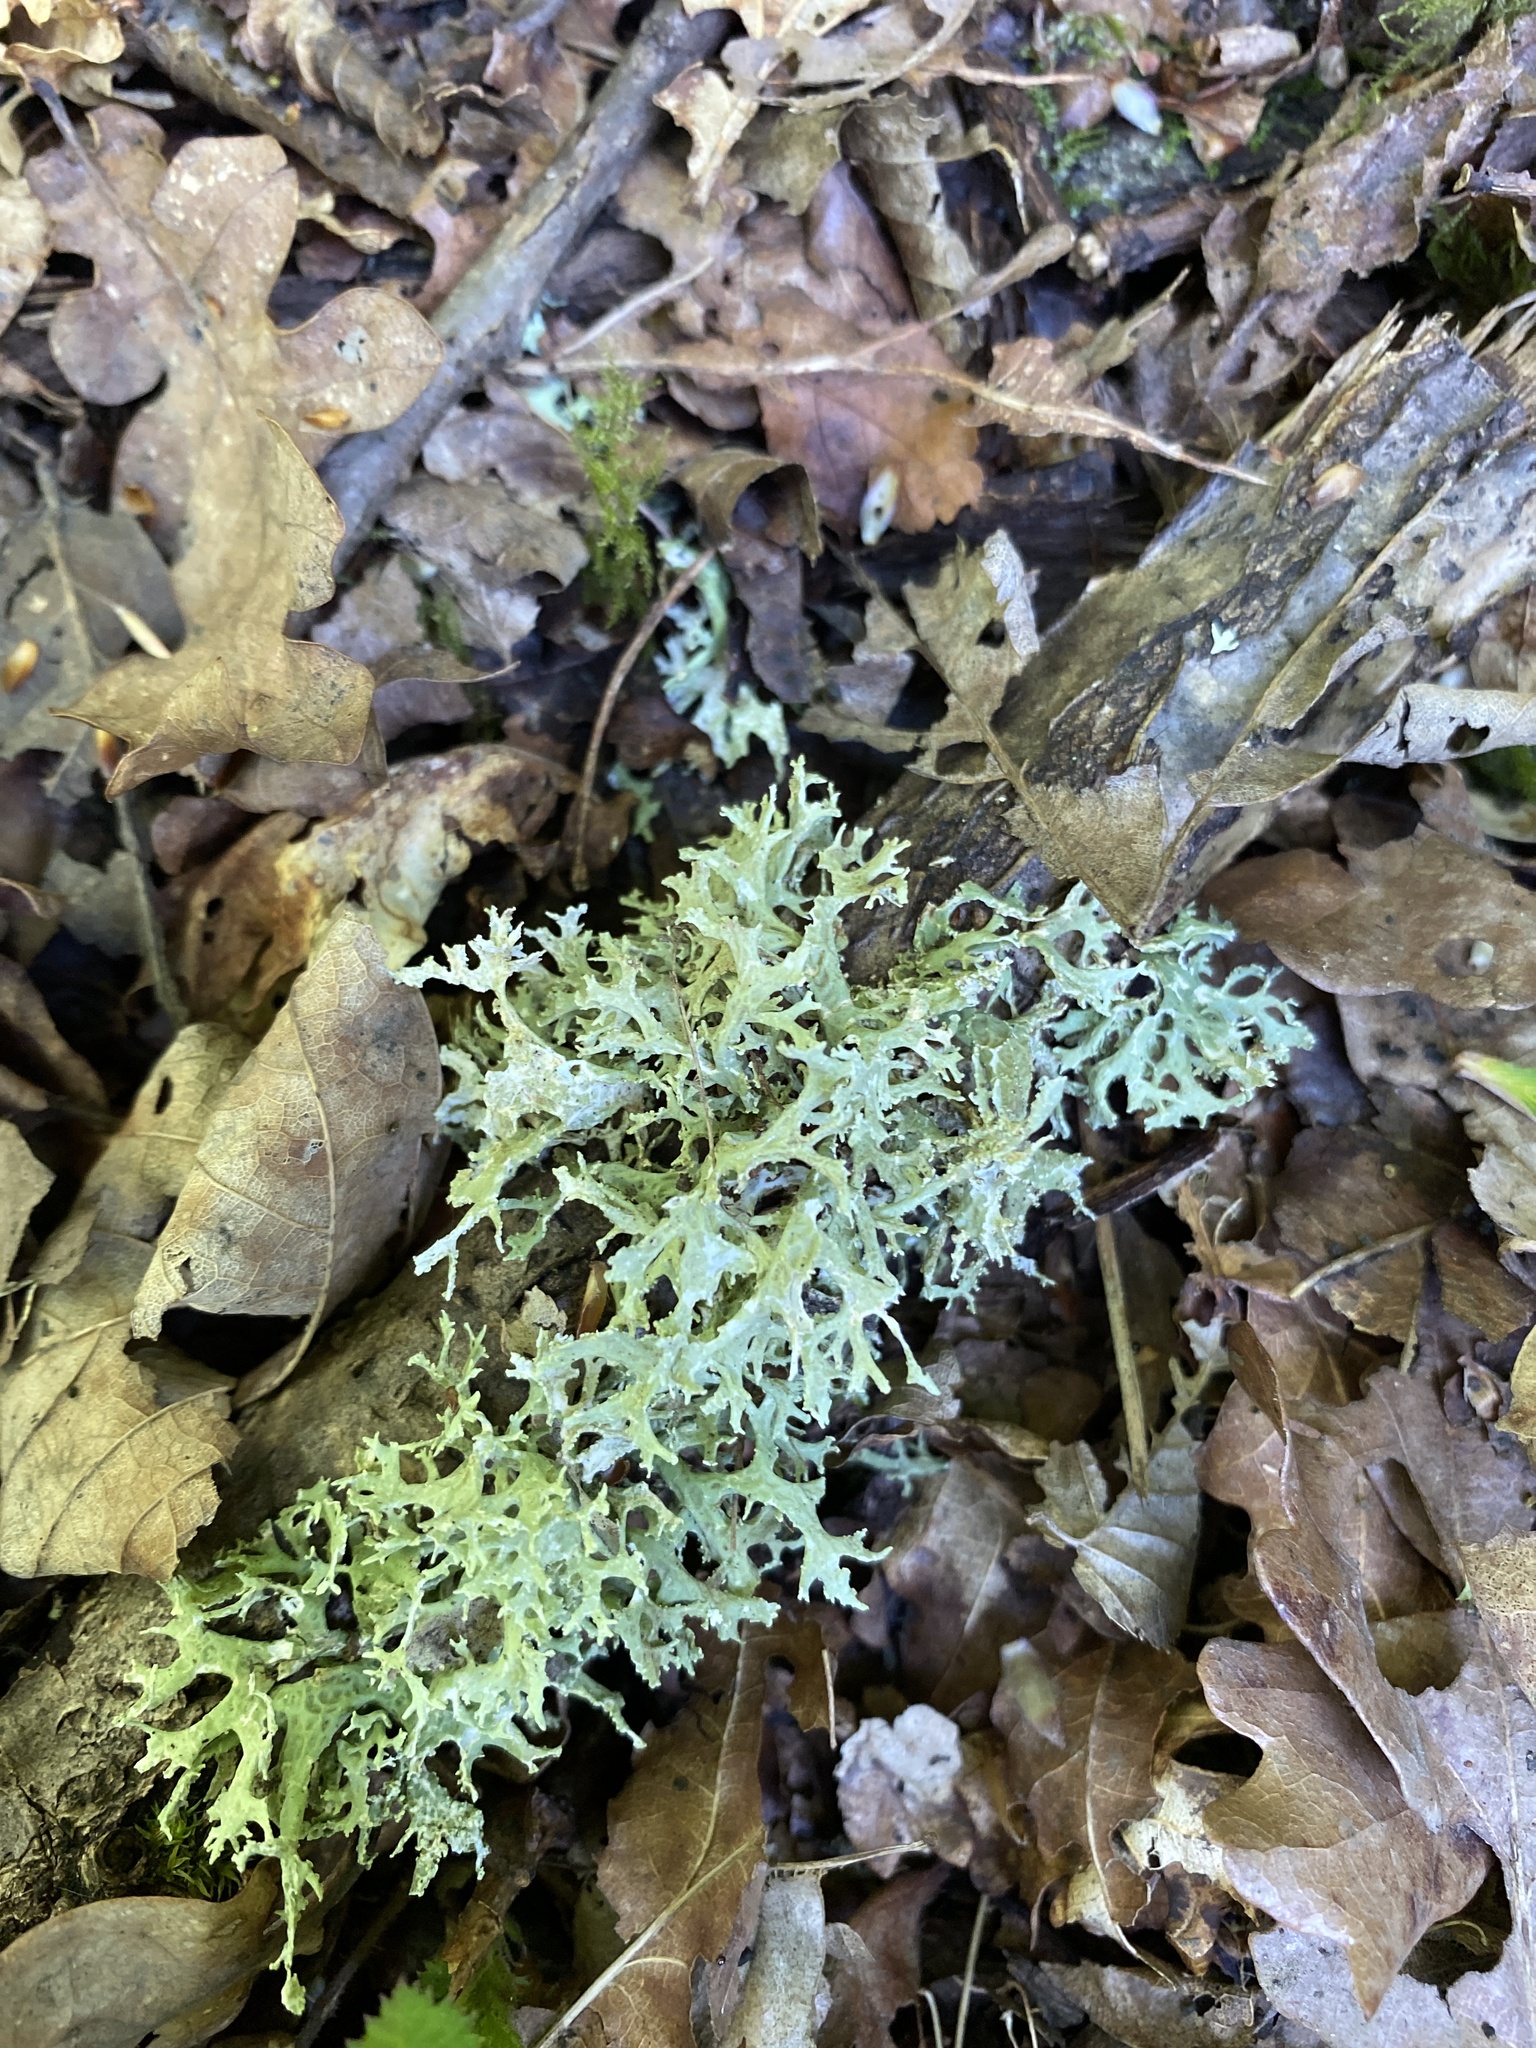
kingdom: Fungi
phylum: Ascomycota
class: Lecanoromycetes
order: Lecanorales
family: Parmeliaceae
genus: Evernia
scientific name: Evernia prunastri
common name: Oak moss
